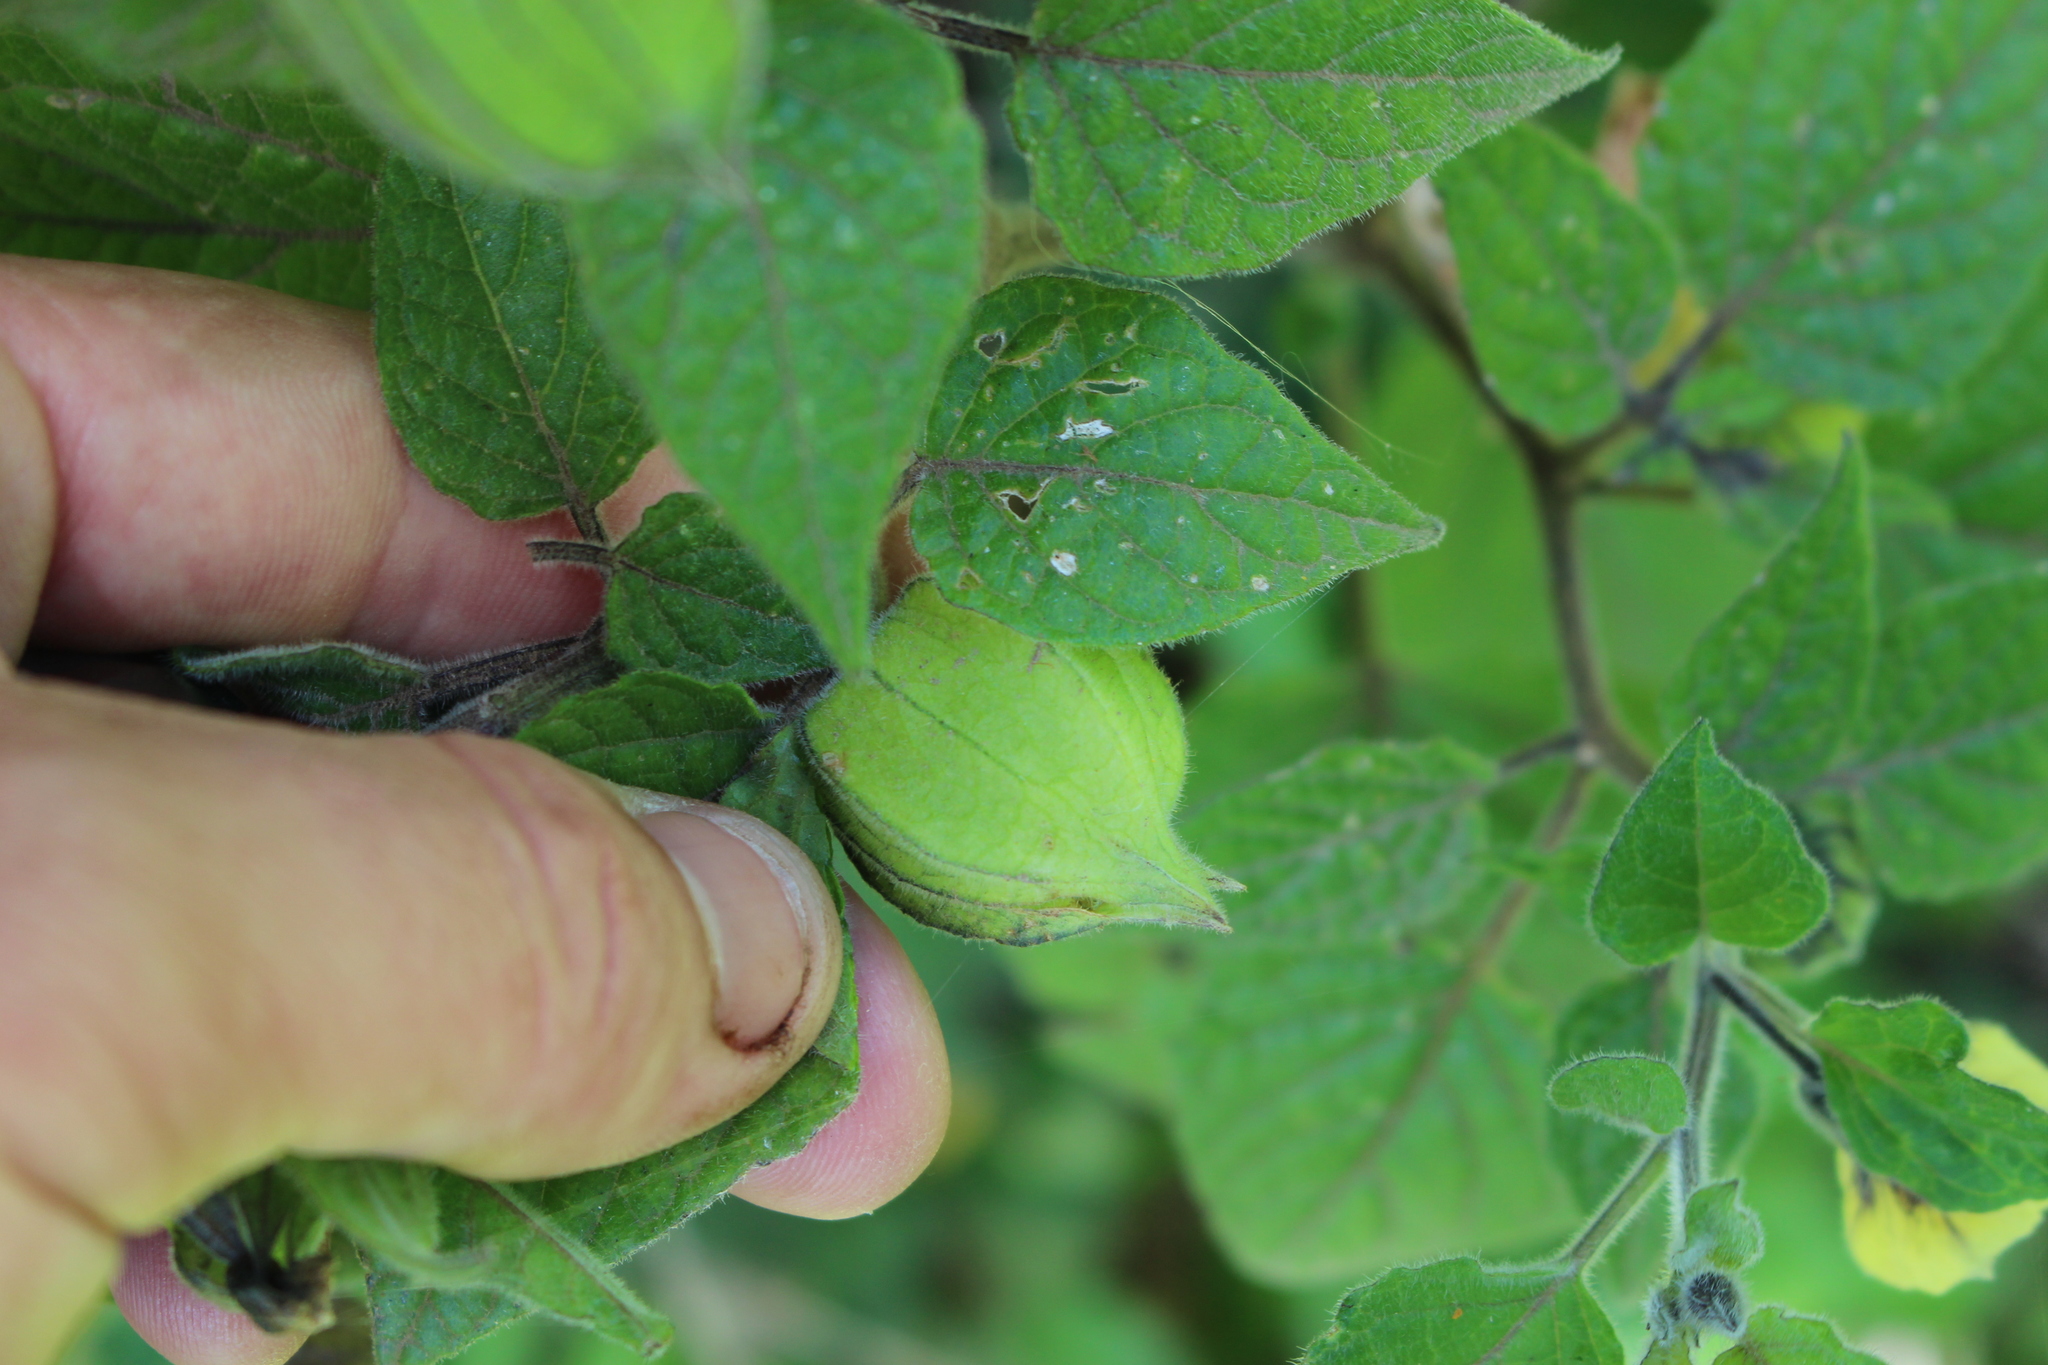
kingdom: Plantae
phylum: Tracheophyta
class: Magnoliopsida
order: Solanales
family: Solanaceae
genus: Physalis
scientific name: Physalis peruviana
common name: Cape-gooseberry
